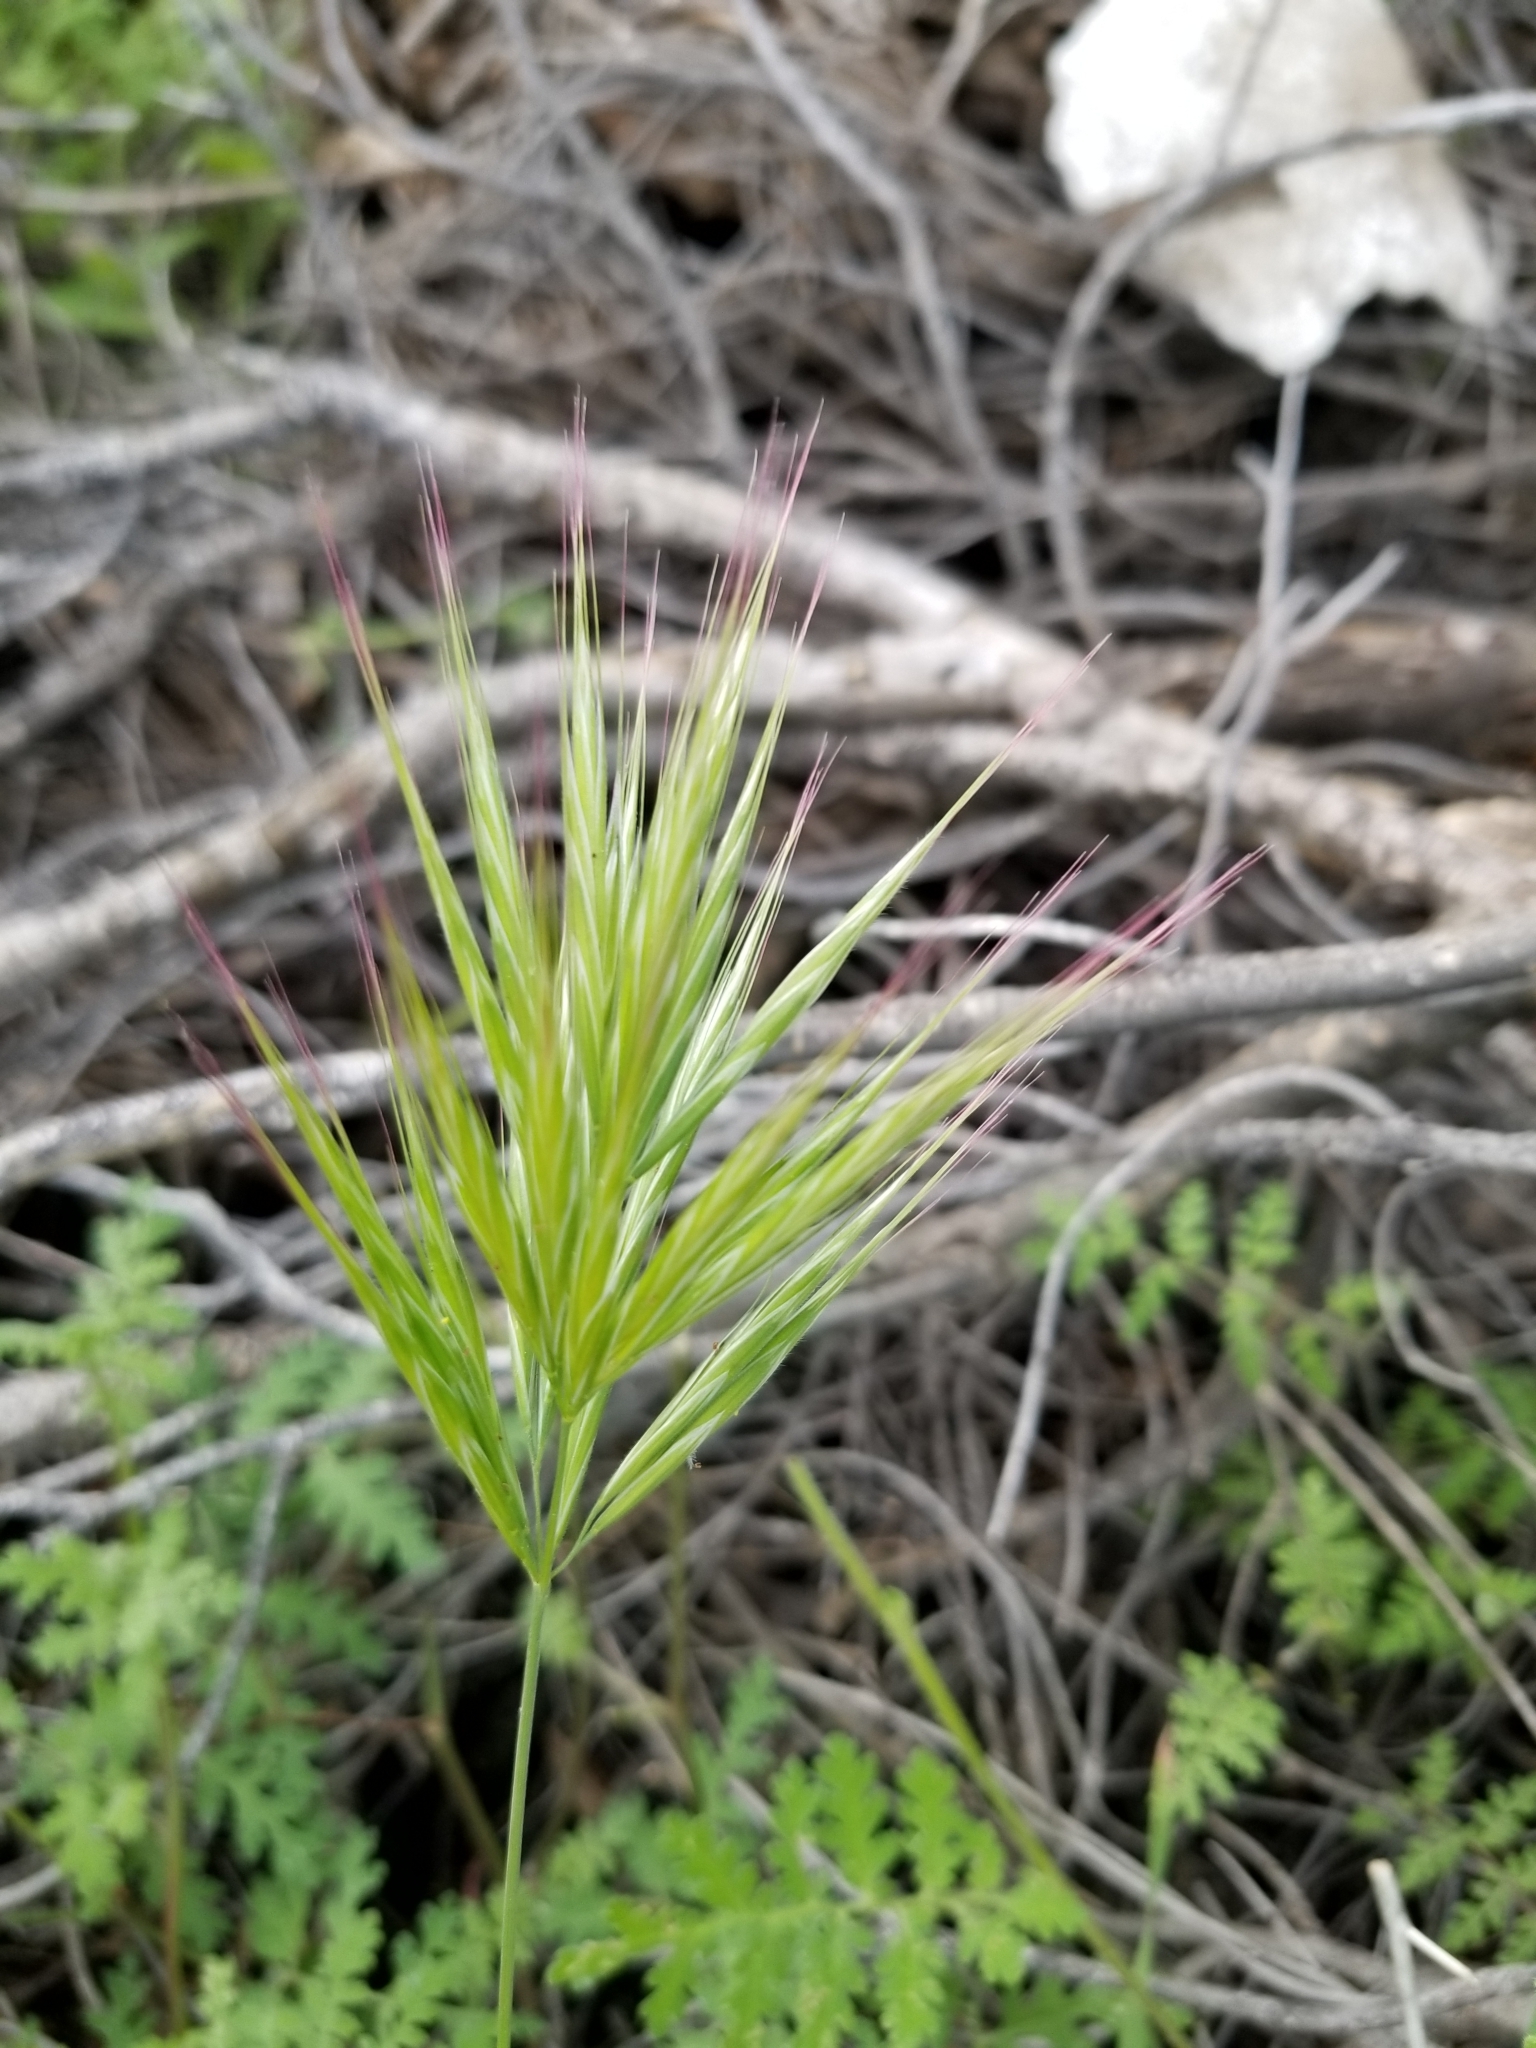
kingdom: Plantae
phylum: Tracheophyta
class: Liliopsida
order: Poales
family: Poaceae
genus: Bromus
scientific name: Bromus rubens
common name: Red brome
